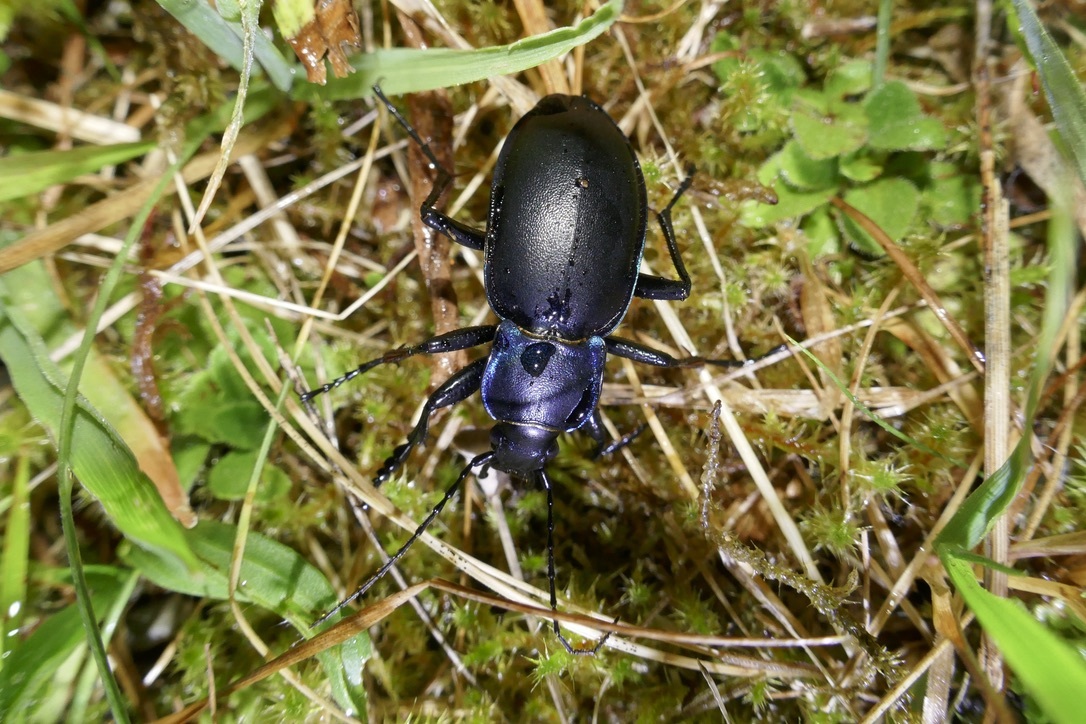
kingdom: Animalia
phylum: Arthropoda
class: Insecta
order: Coleoptera
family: Carabidae
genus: Carabus
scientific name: Carabus violaceus
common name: Violet ground beetle
